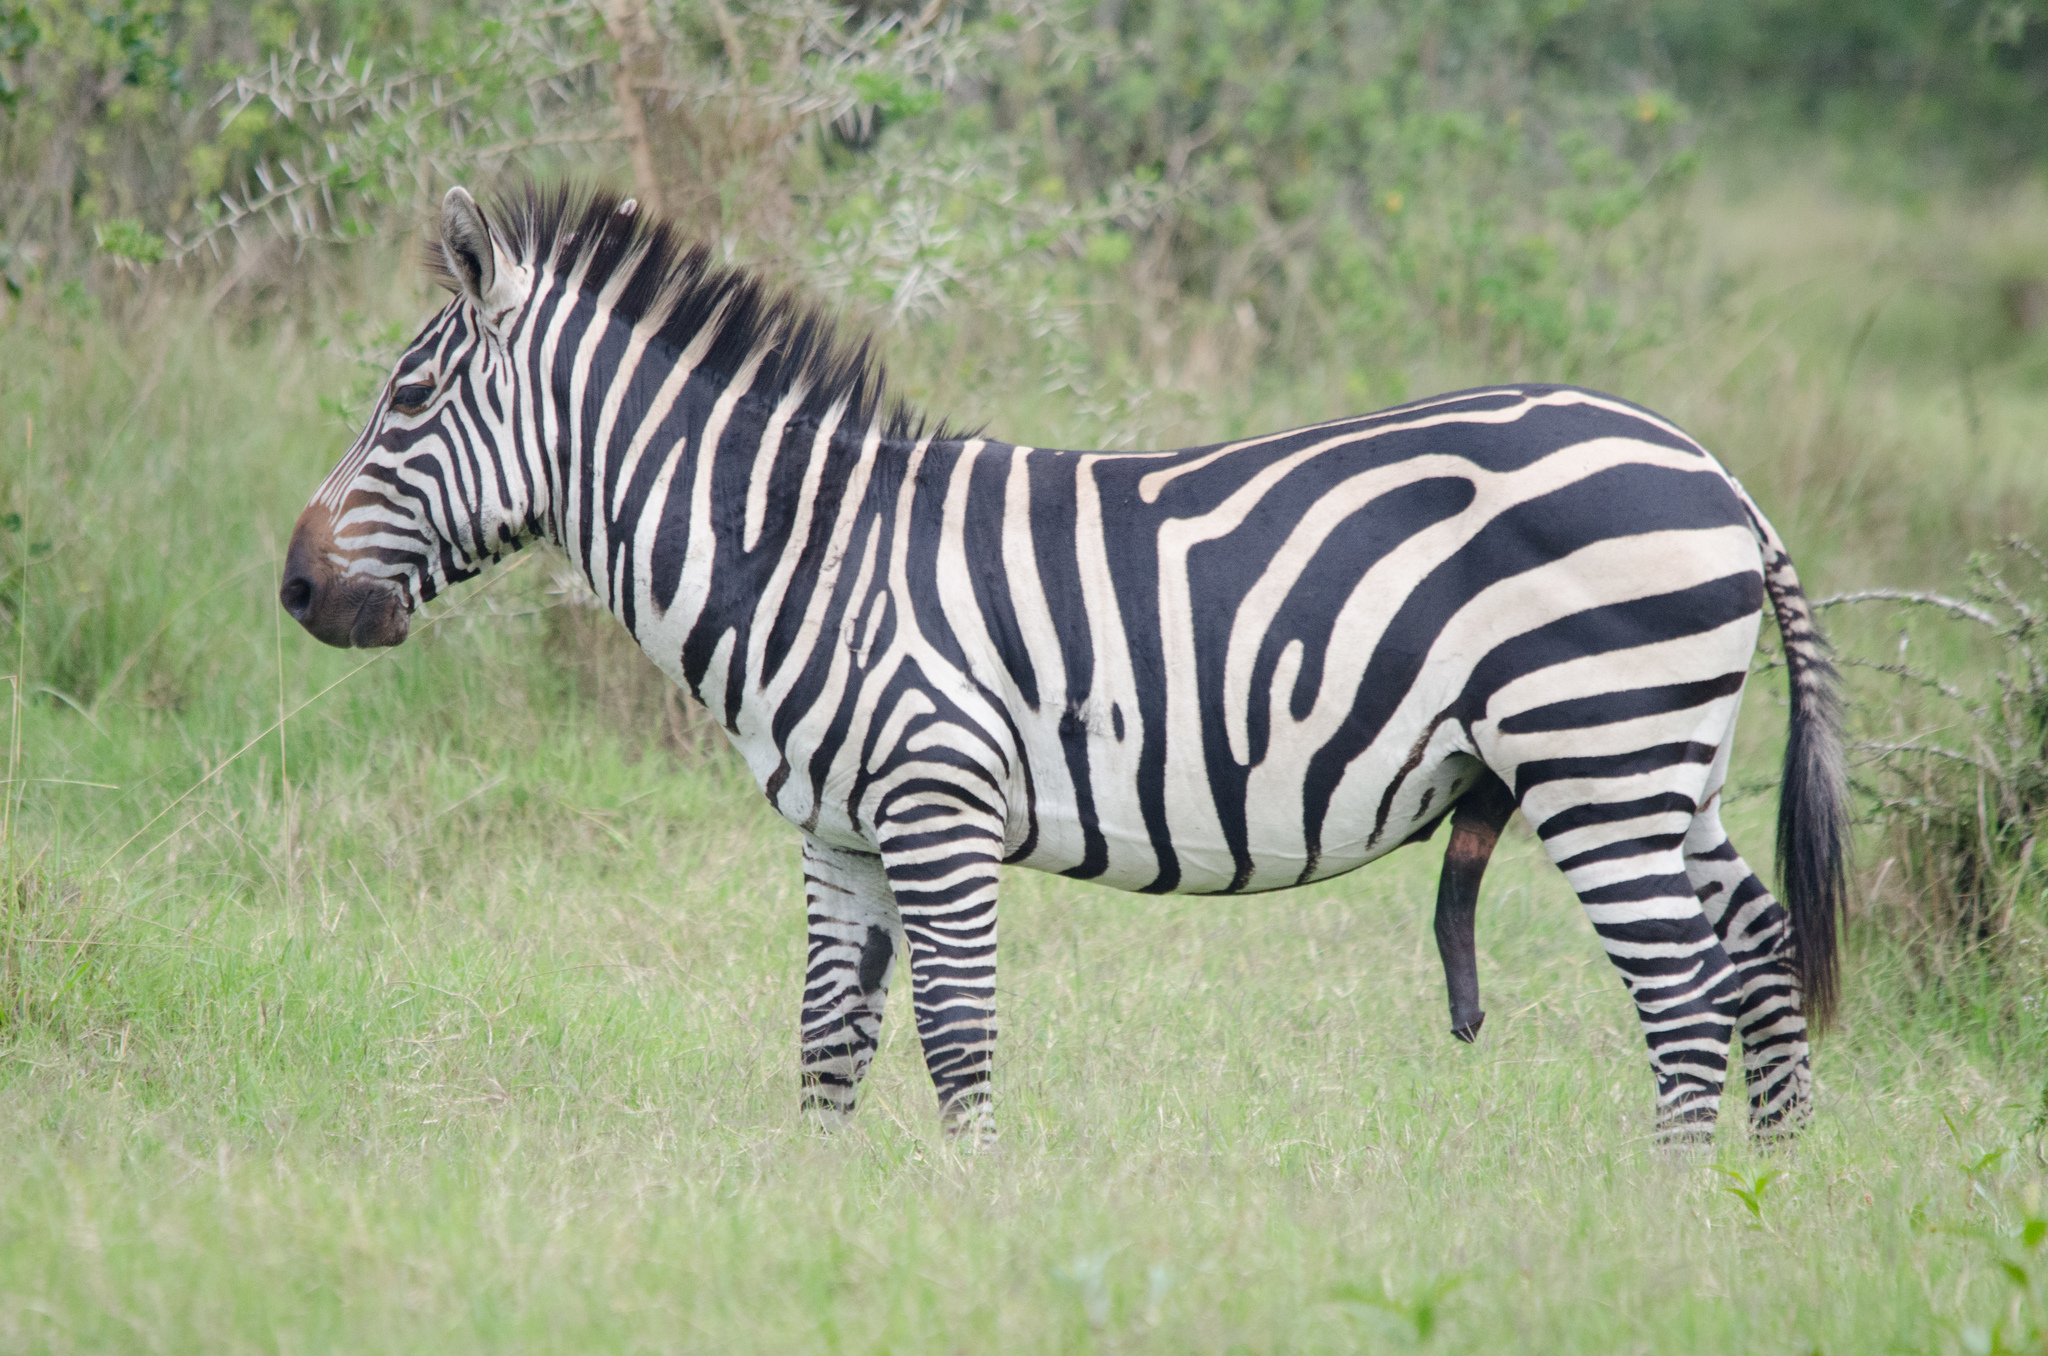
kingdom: Animalia
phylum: Chordata
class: Mammalia
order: Perissodactyla
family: Equidae
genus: Equus
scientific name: Equus quagga
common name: Plains zebra
